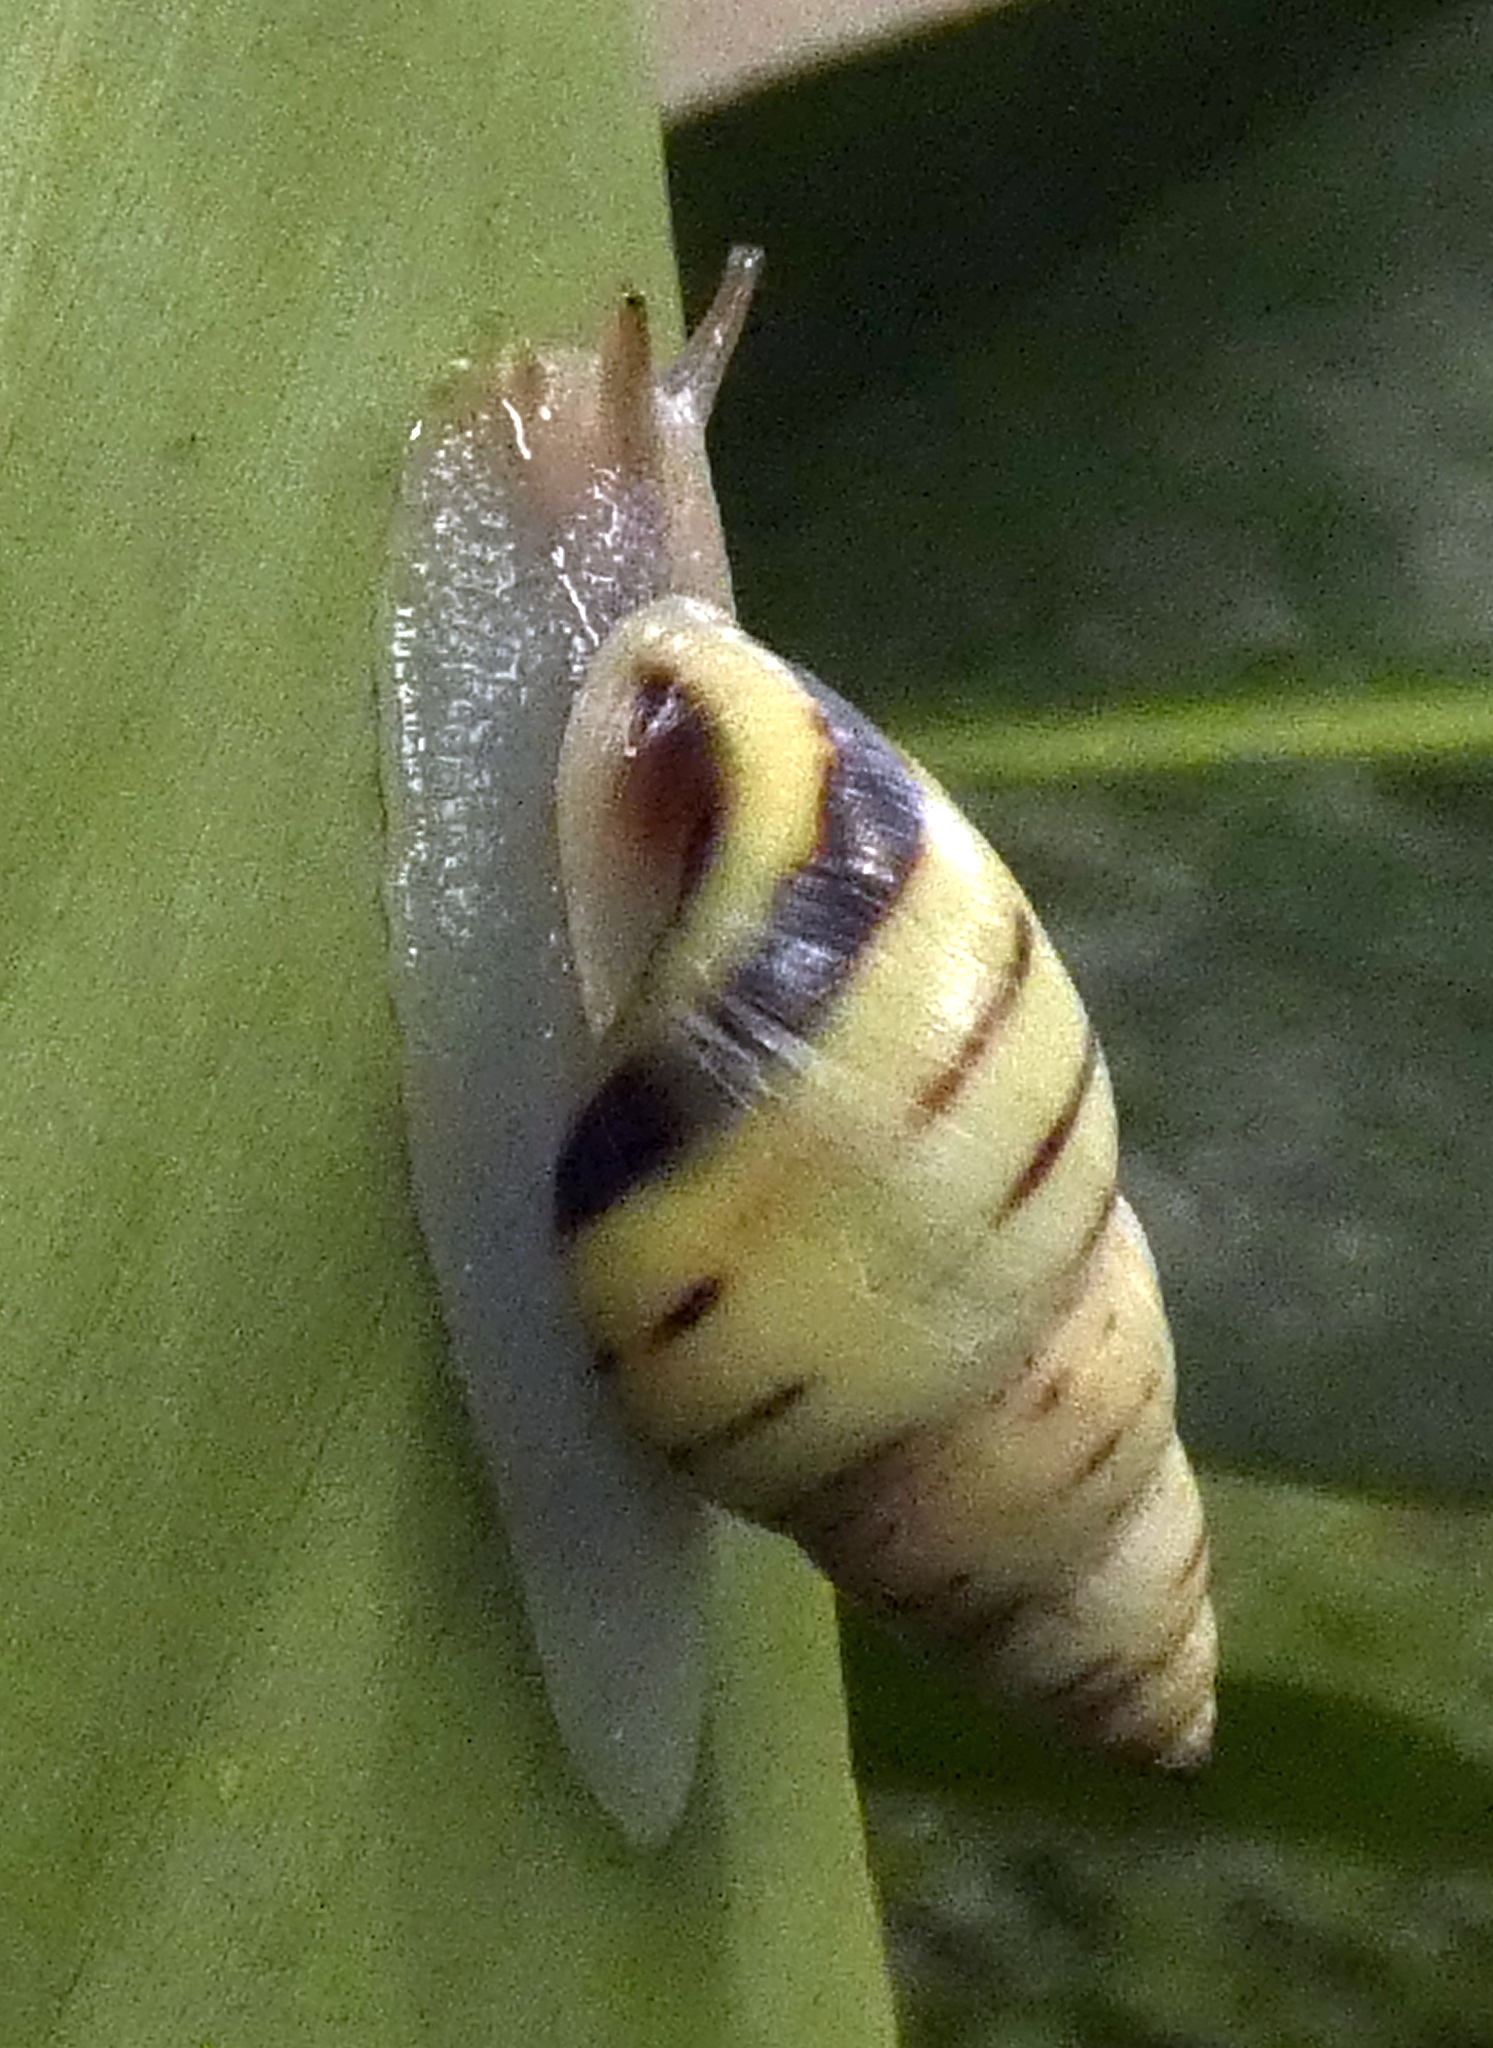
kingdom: Animalia
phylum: Mollusca
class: Gastropoda
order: Stylommatophora
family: Bulimulidae
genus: Drymaeus
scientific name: Drymaeus
